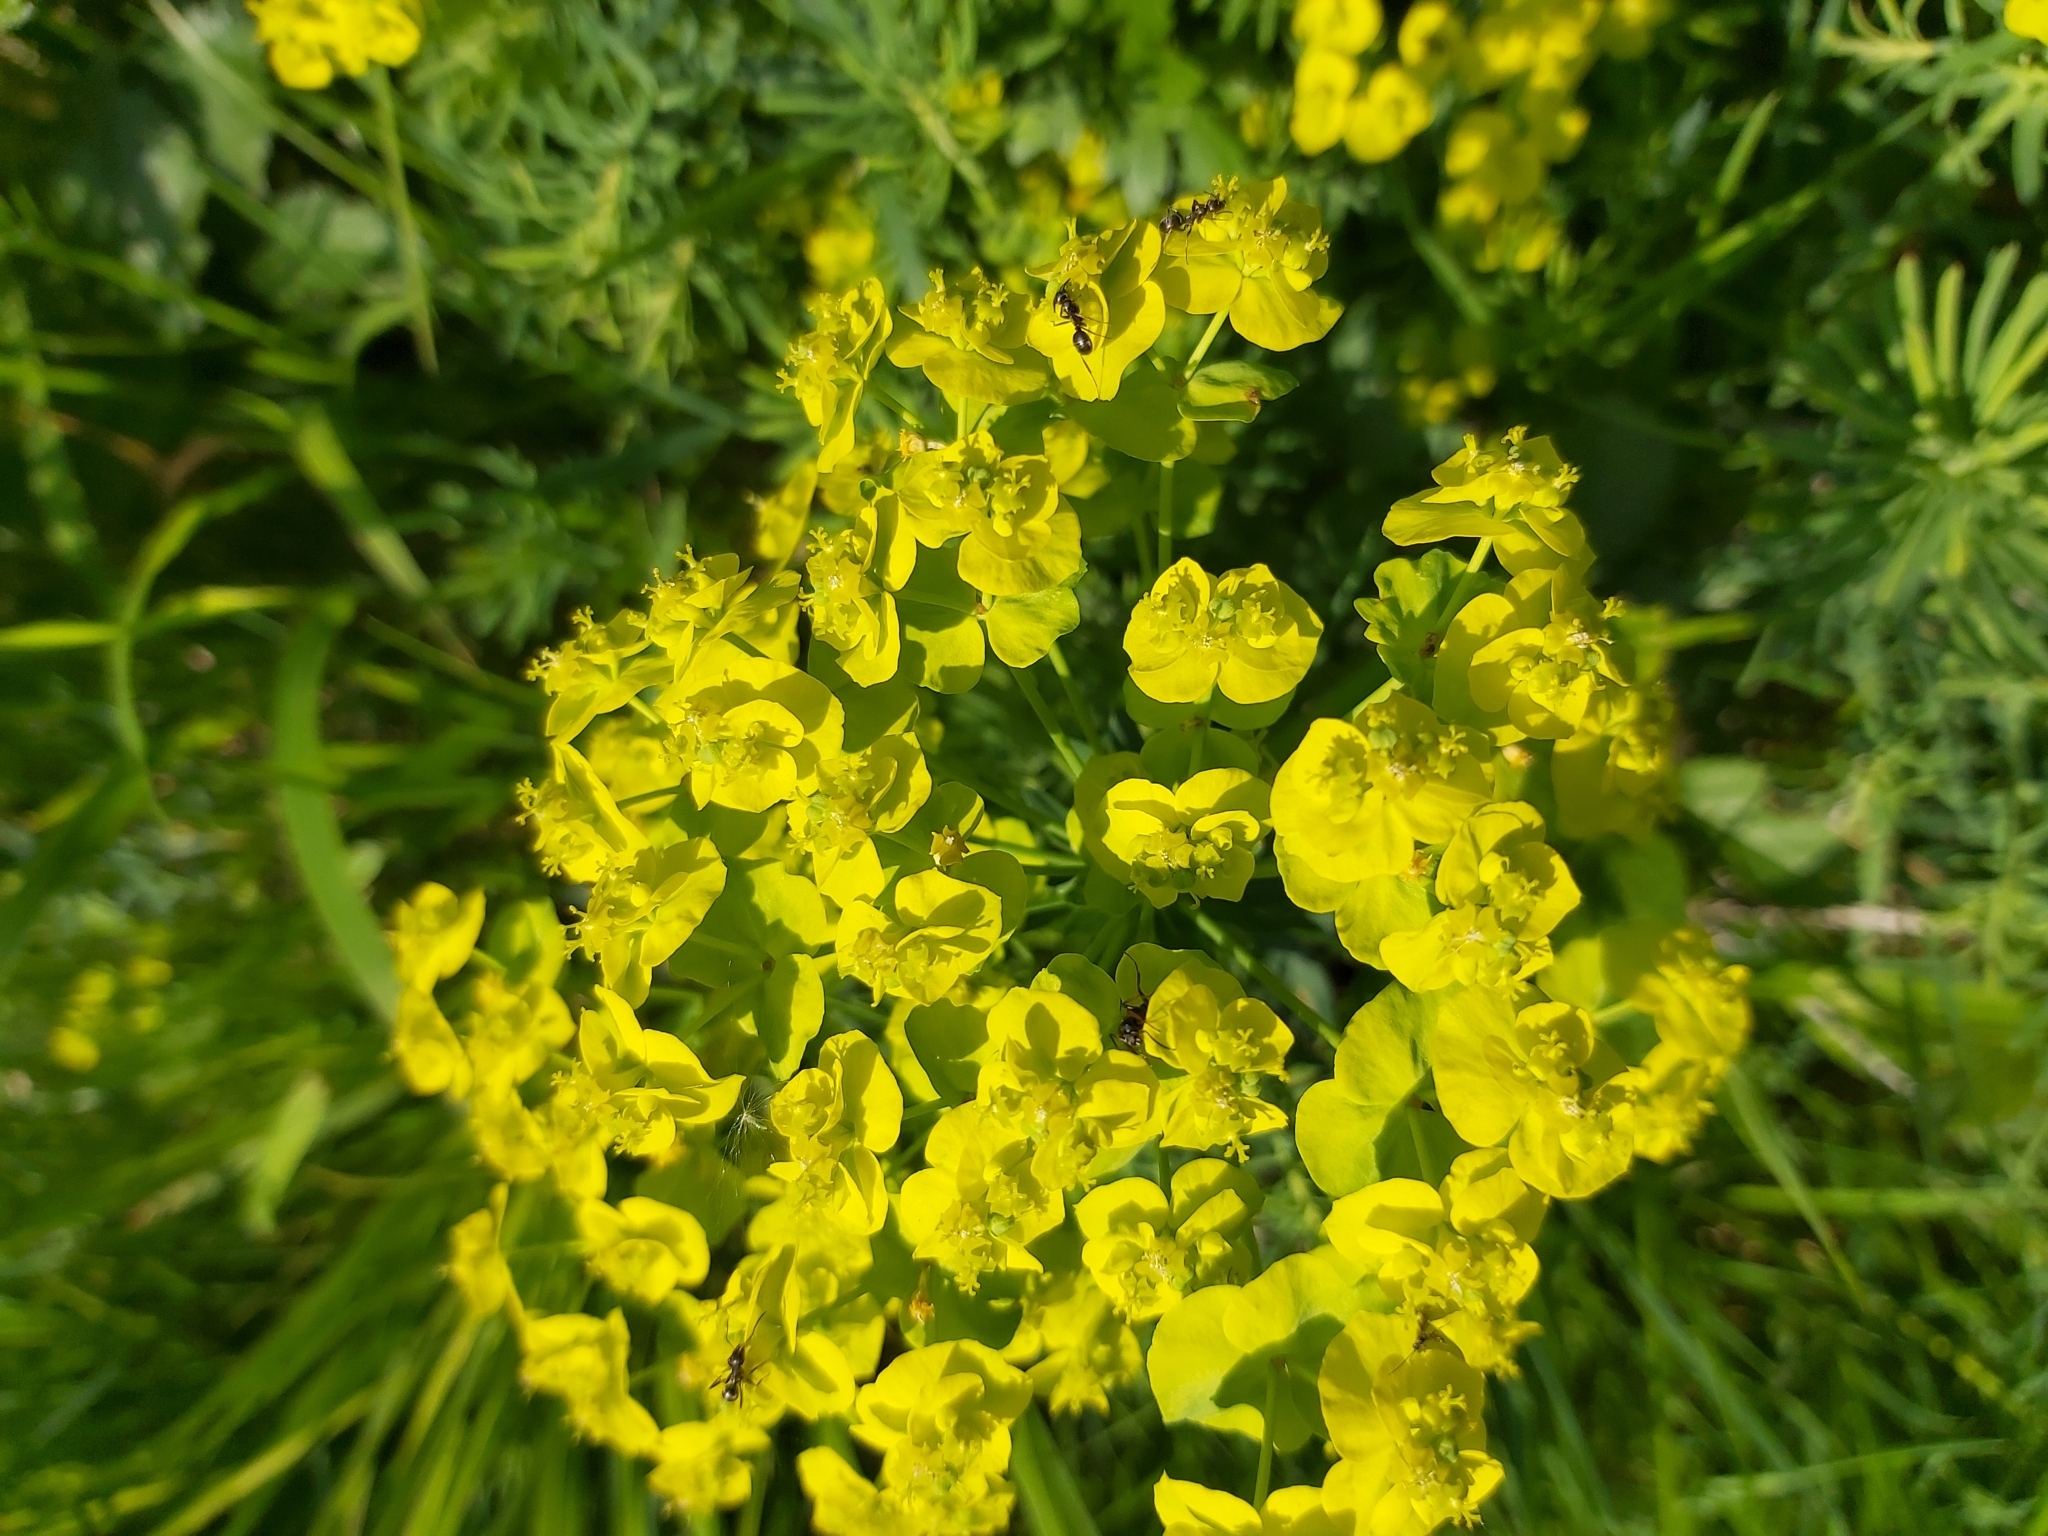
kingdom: Plantae
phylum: Tracheophyta
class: Magnoliopsida
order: Malpighiales
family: Euphorbiaceae
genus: Euphorbia
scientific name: Euphorbia cyparissias
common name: Cypress spurge
